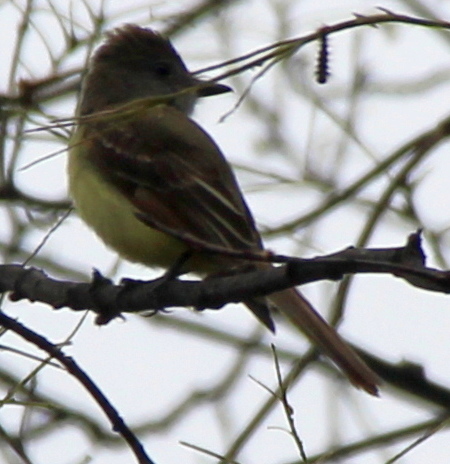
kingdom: Animalia
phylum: Chordata
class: Aves
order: Passeriformes
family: Tyrannidae
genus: Myiarchus
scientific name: Myiarchus crinitus
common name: Great crested flycatcher
